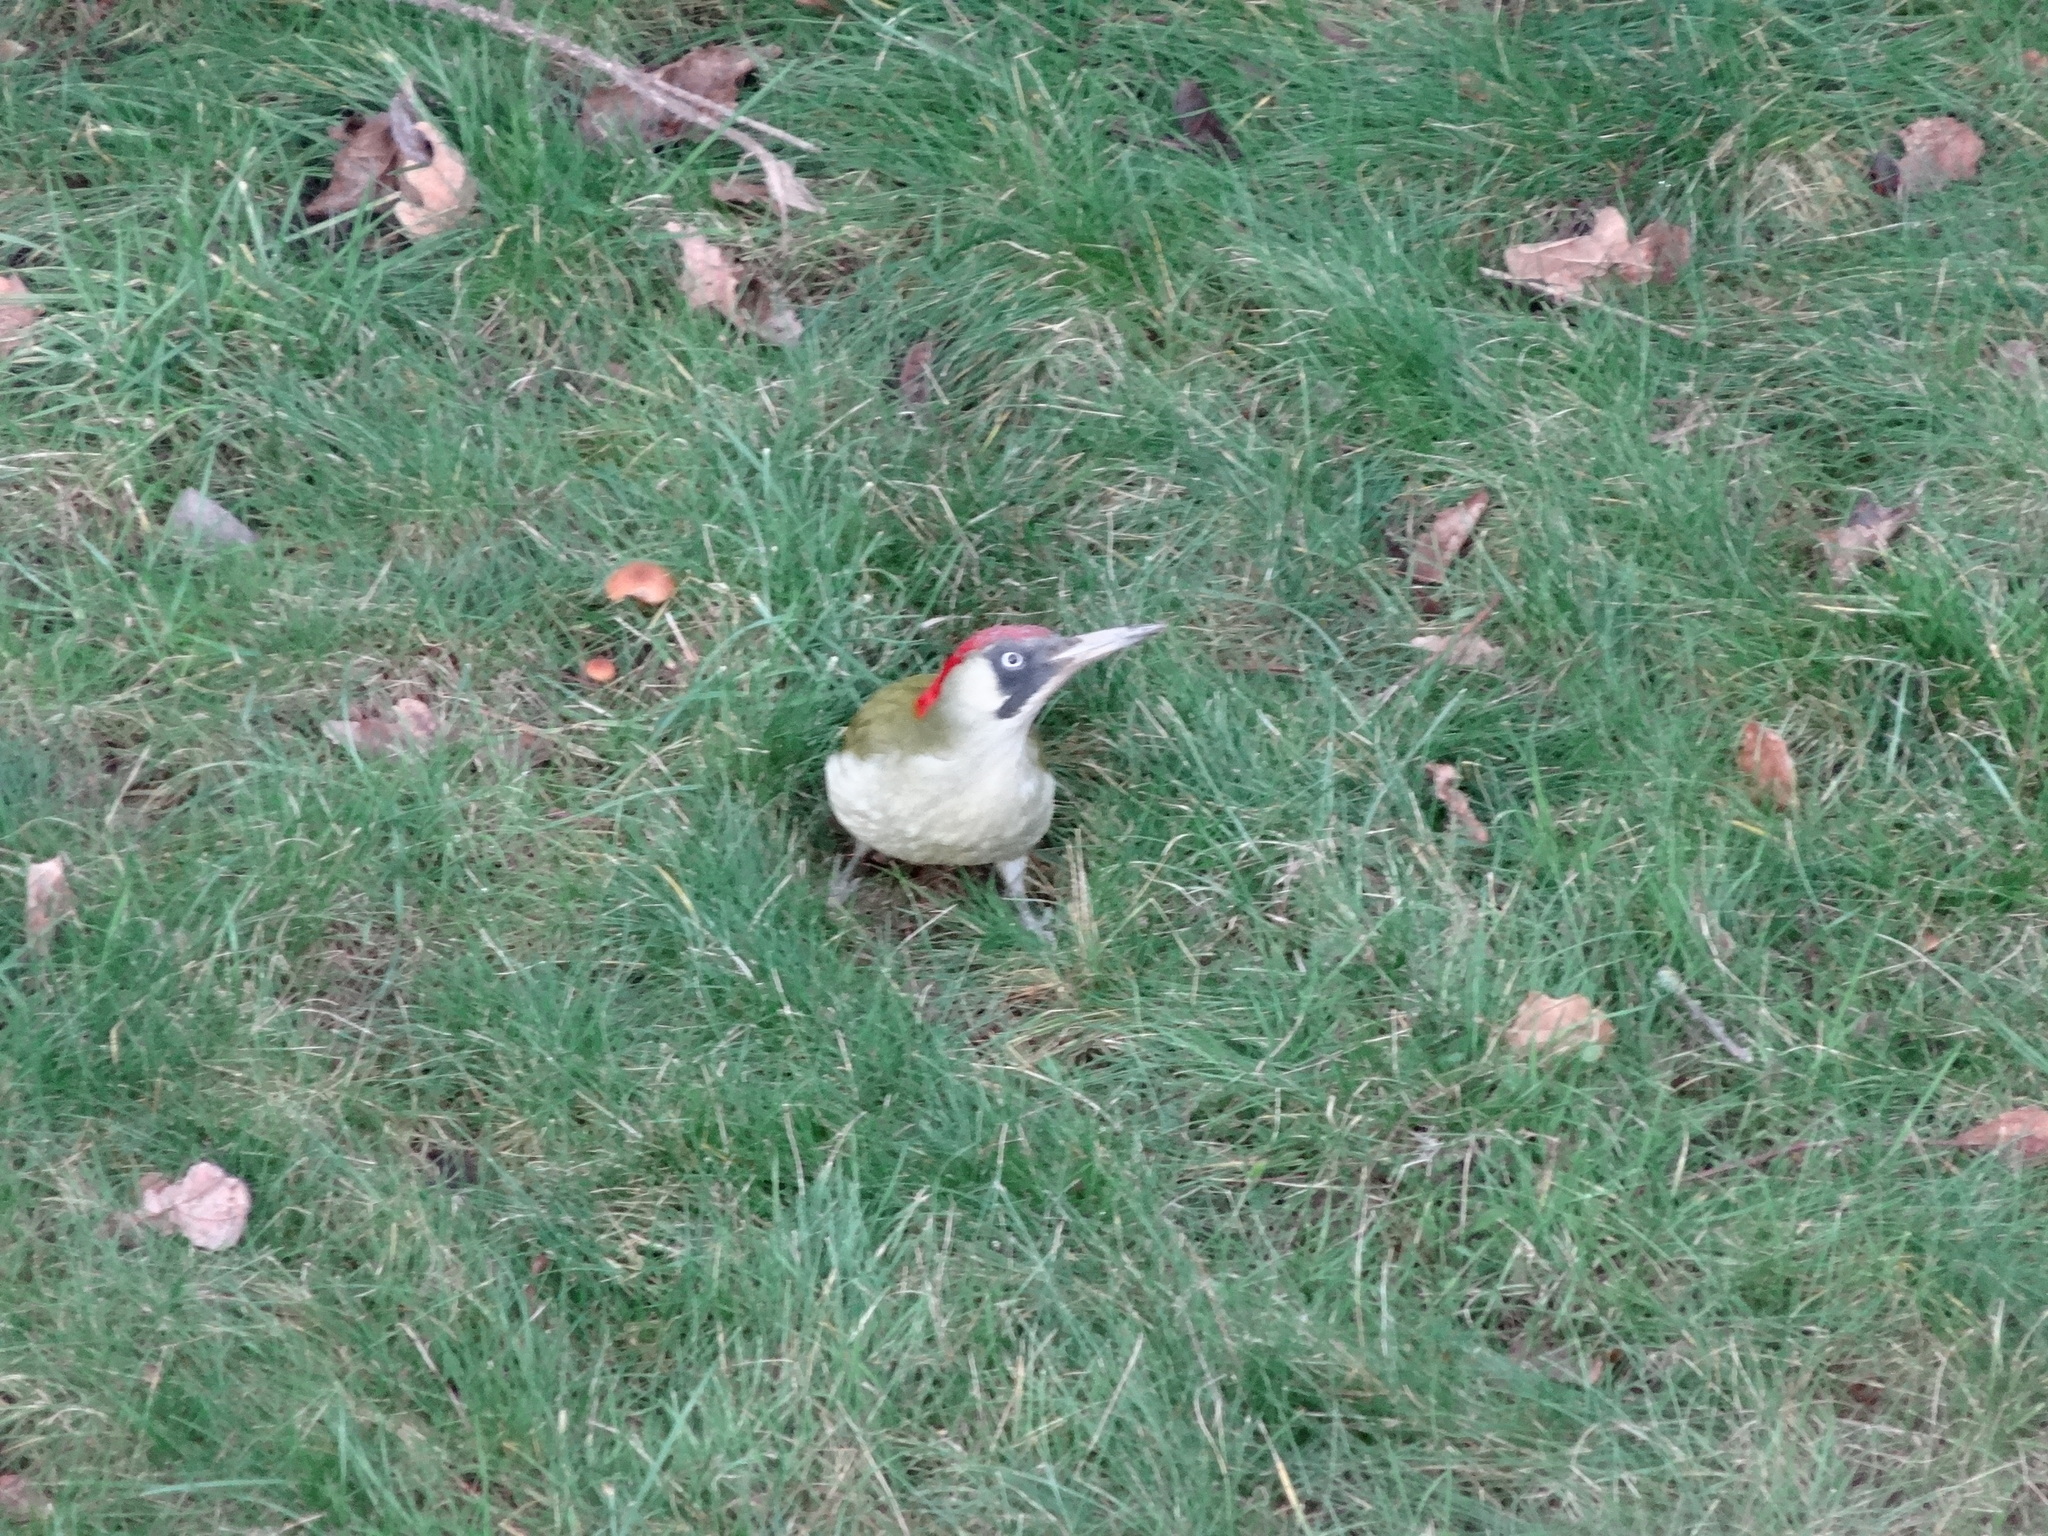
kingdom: Animalia
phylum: Chordata
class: Aves
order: Piciformes
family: Picidae
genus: Picus
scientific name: Picus viridis
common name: European green woodpecker
